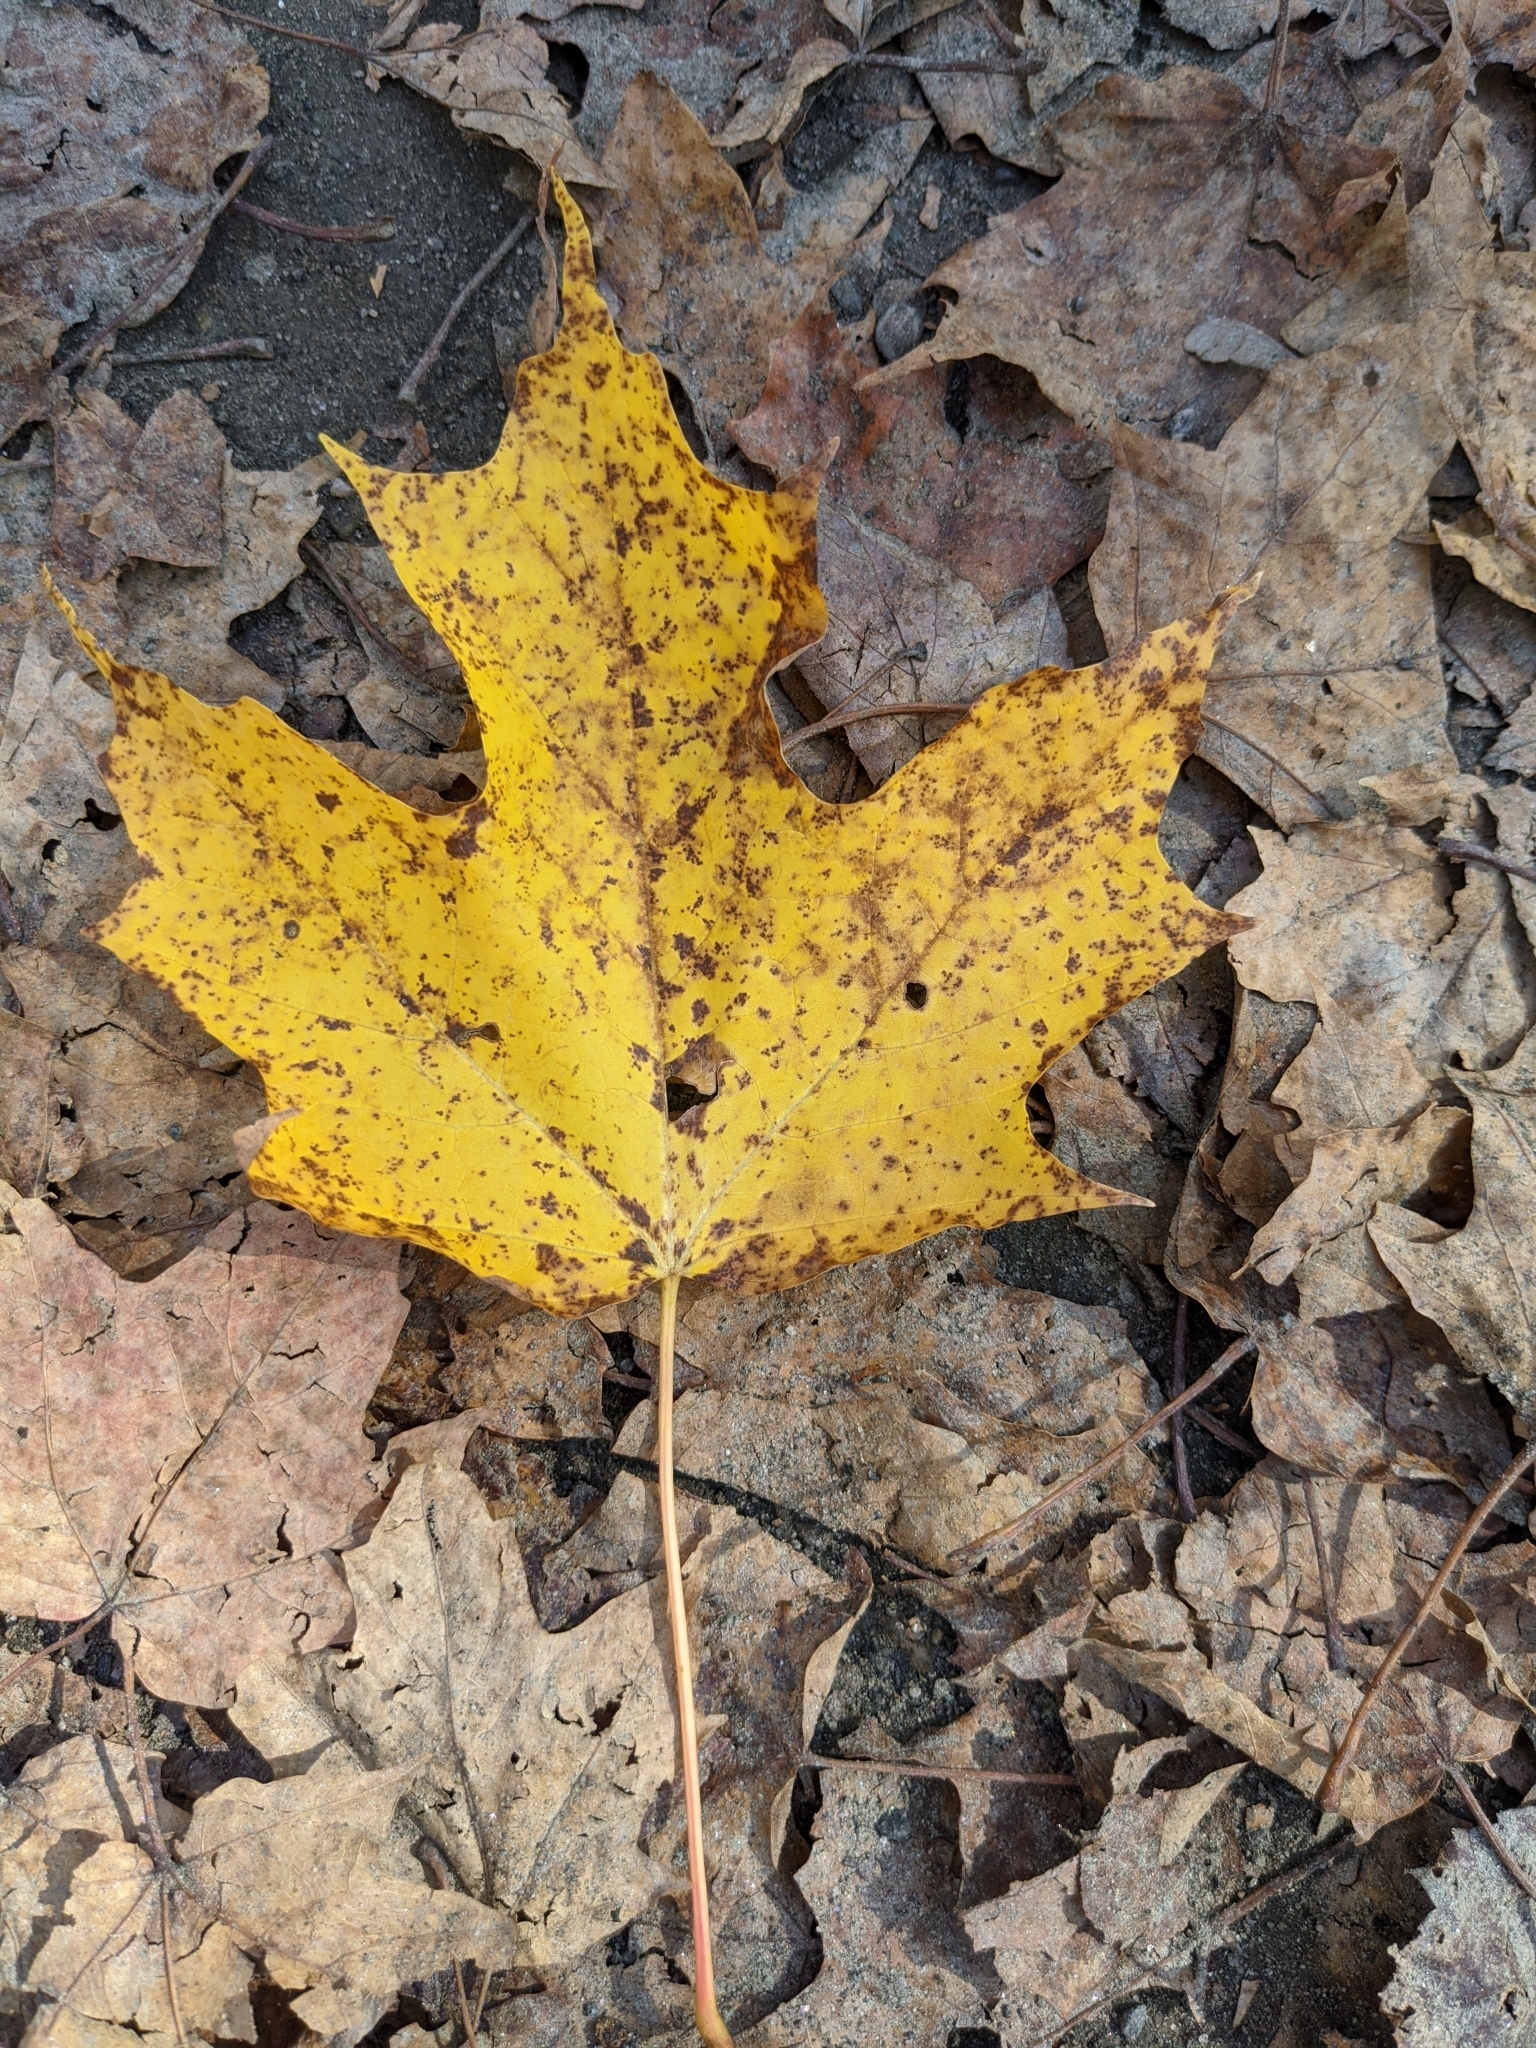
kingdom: Plantae
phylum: Tracheophyta
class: Magnoliopsida
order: Sapindales
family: Sapindaceae
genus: Acer
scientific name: Acer saccharum
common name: Sugar maple
